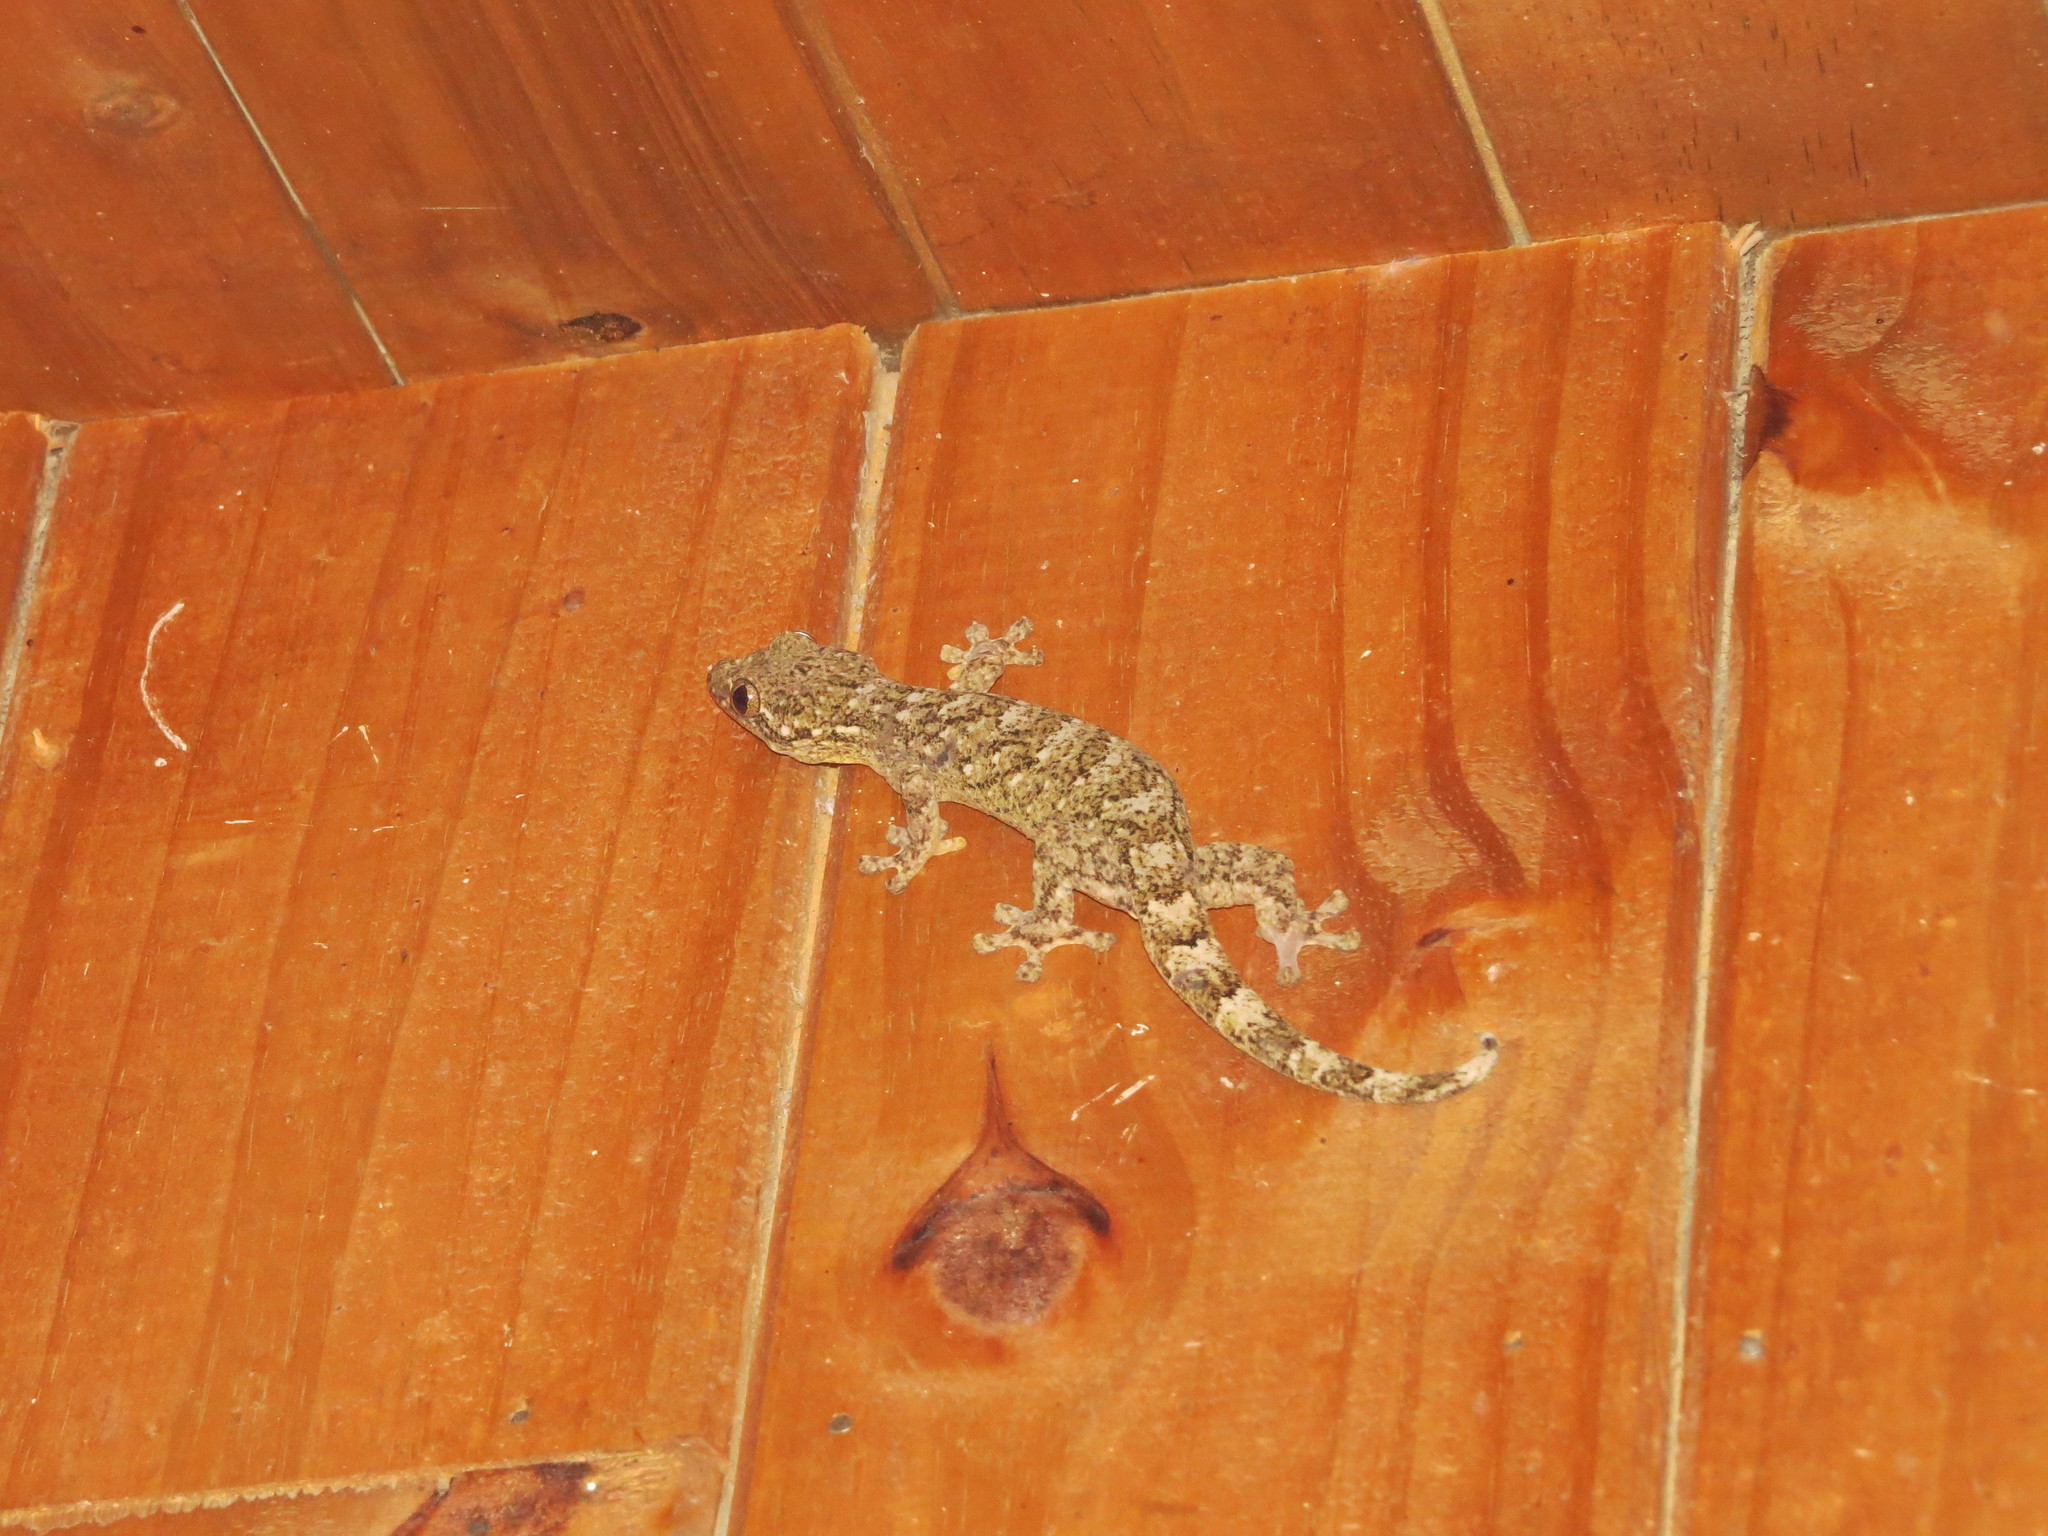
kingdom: Animalia
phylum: Chordata
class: Squamata
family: Phyllodactylidae
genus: Thecadactylus
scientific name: Thecadactylus rapicauda
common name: Turnip-tailed gecko
